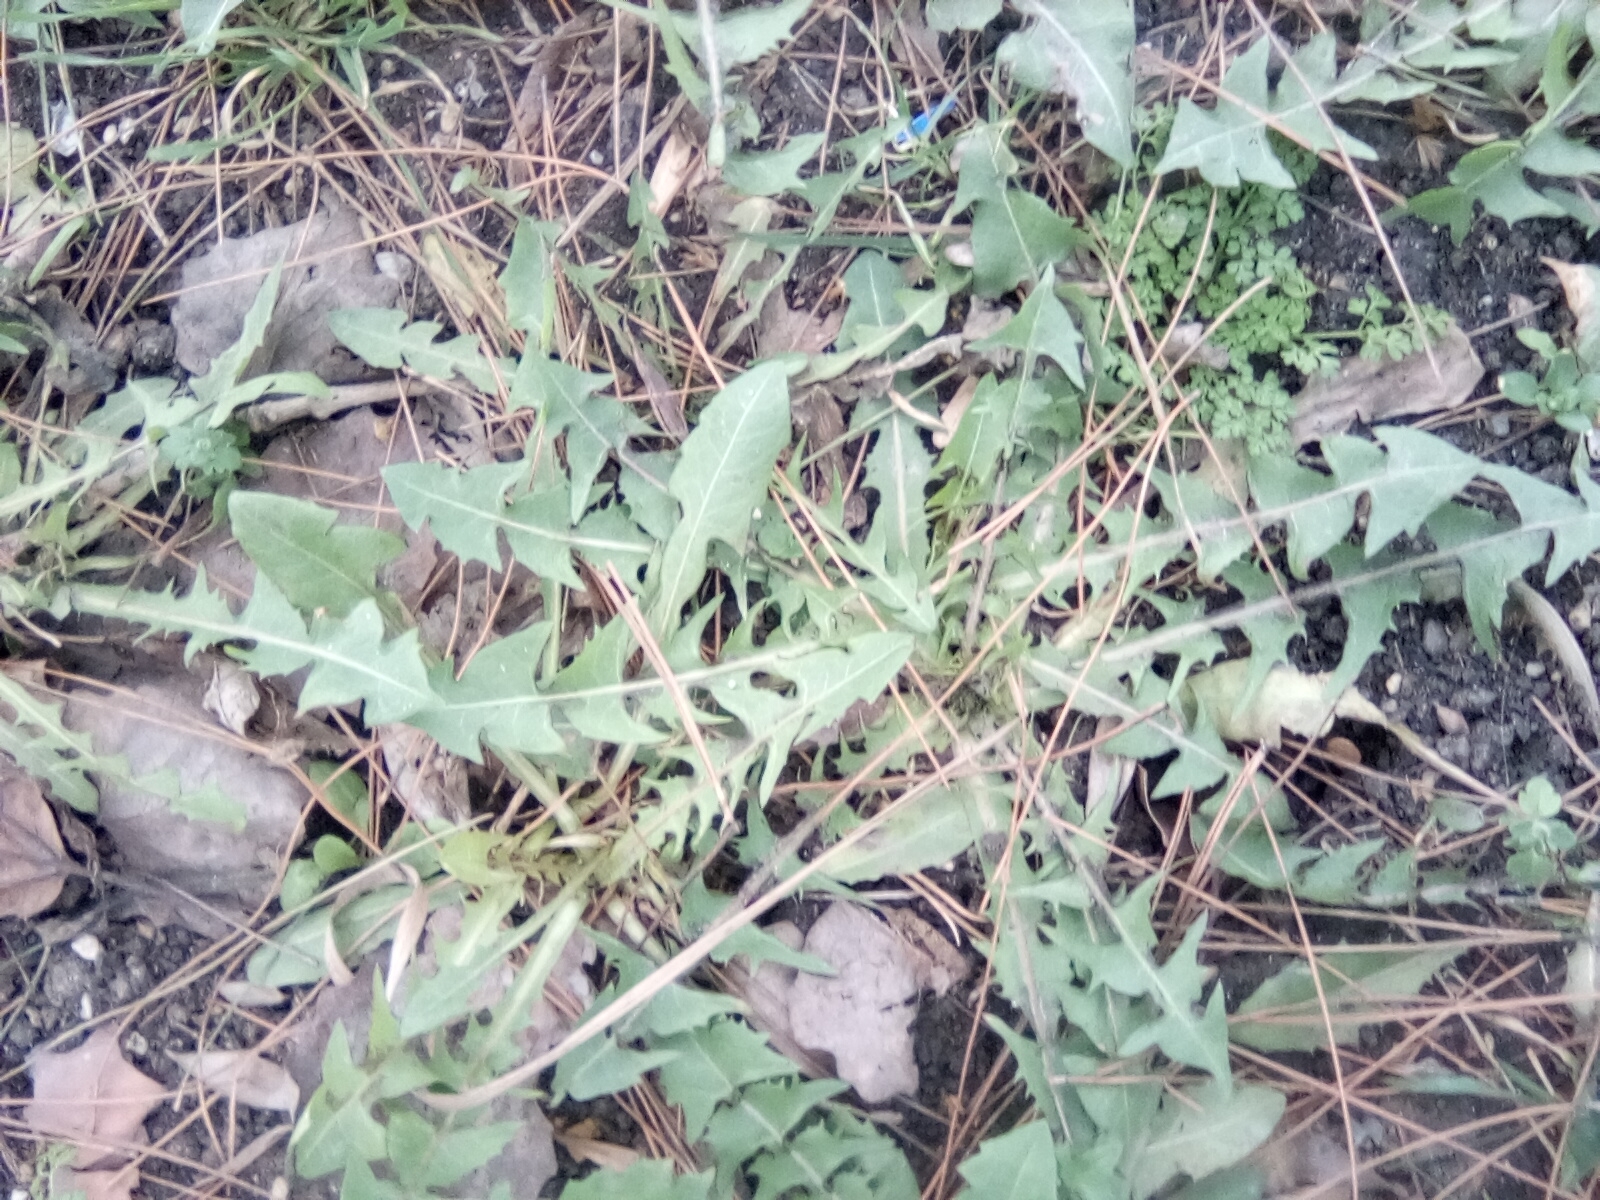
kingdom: Plantae
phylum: Tracheophyta
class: Magnoliopsida
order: Asterales
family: Asteraceae
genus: Taraxacum
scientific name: Taraxacum
